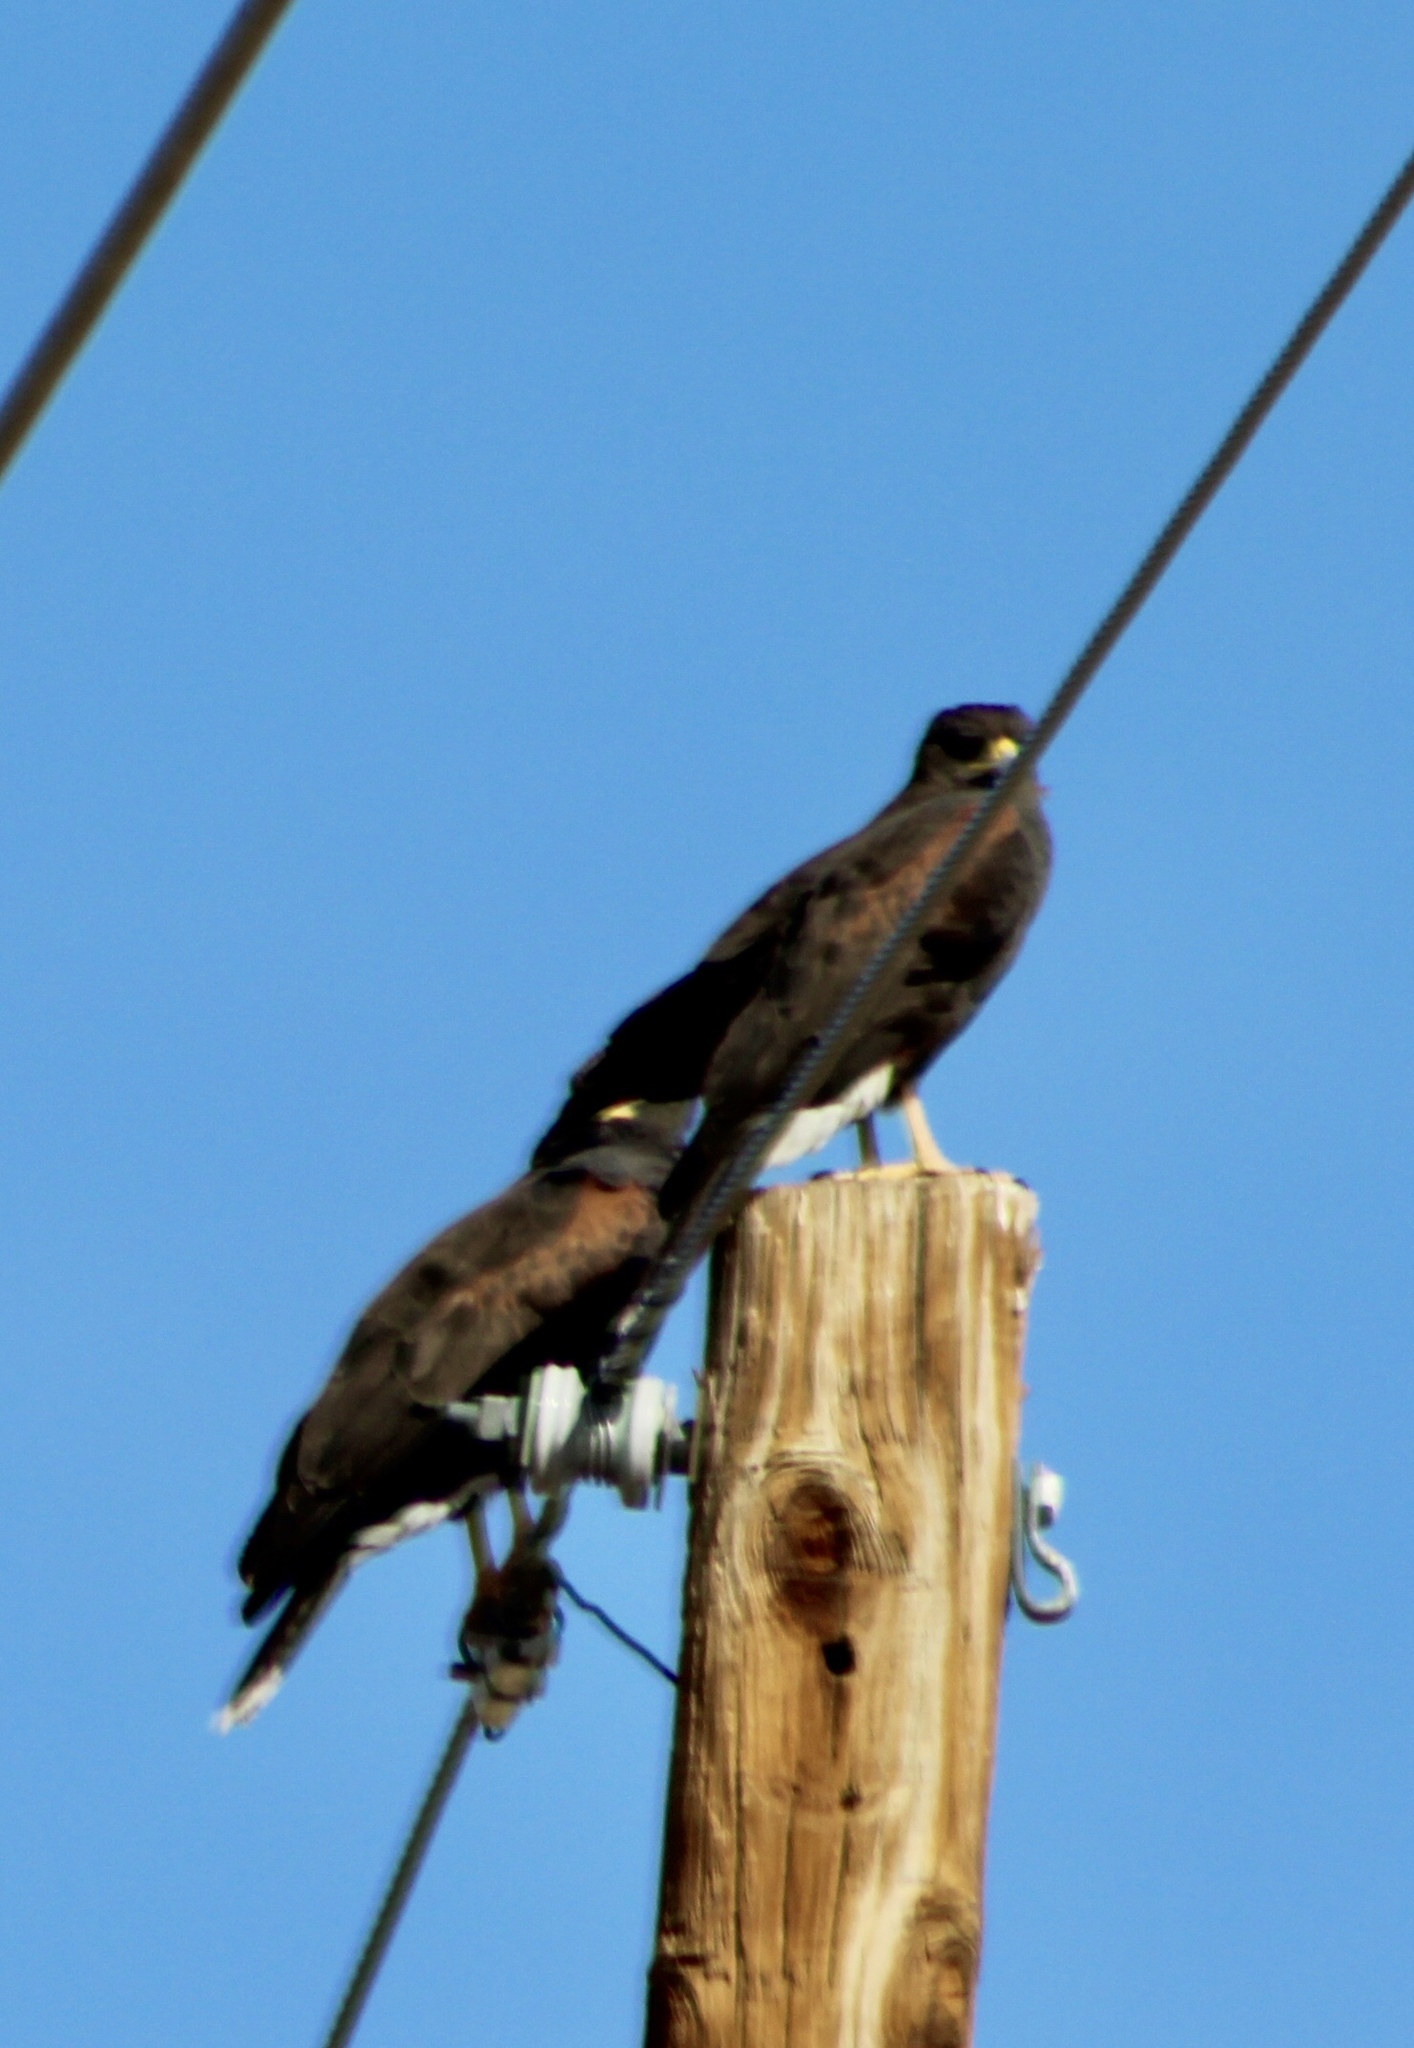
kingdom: Animalia
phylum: Chordata
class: Aves
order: Accipitriformes
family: Accipitridae
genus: Parabuteo
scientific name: Parabuteo unicinctus
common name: Harris's hawk
